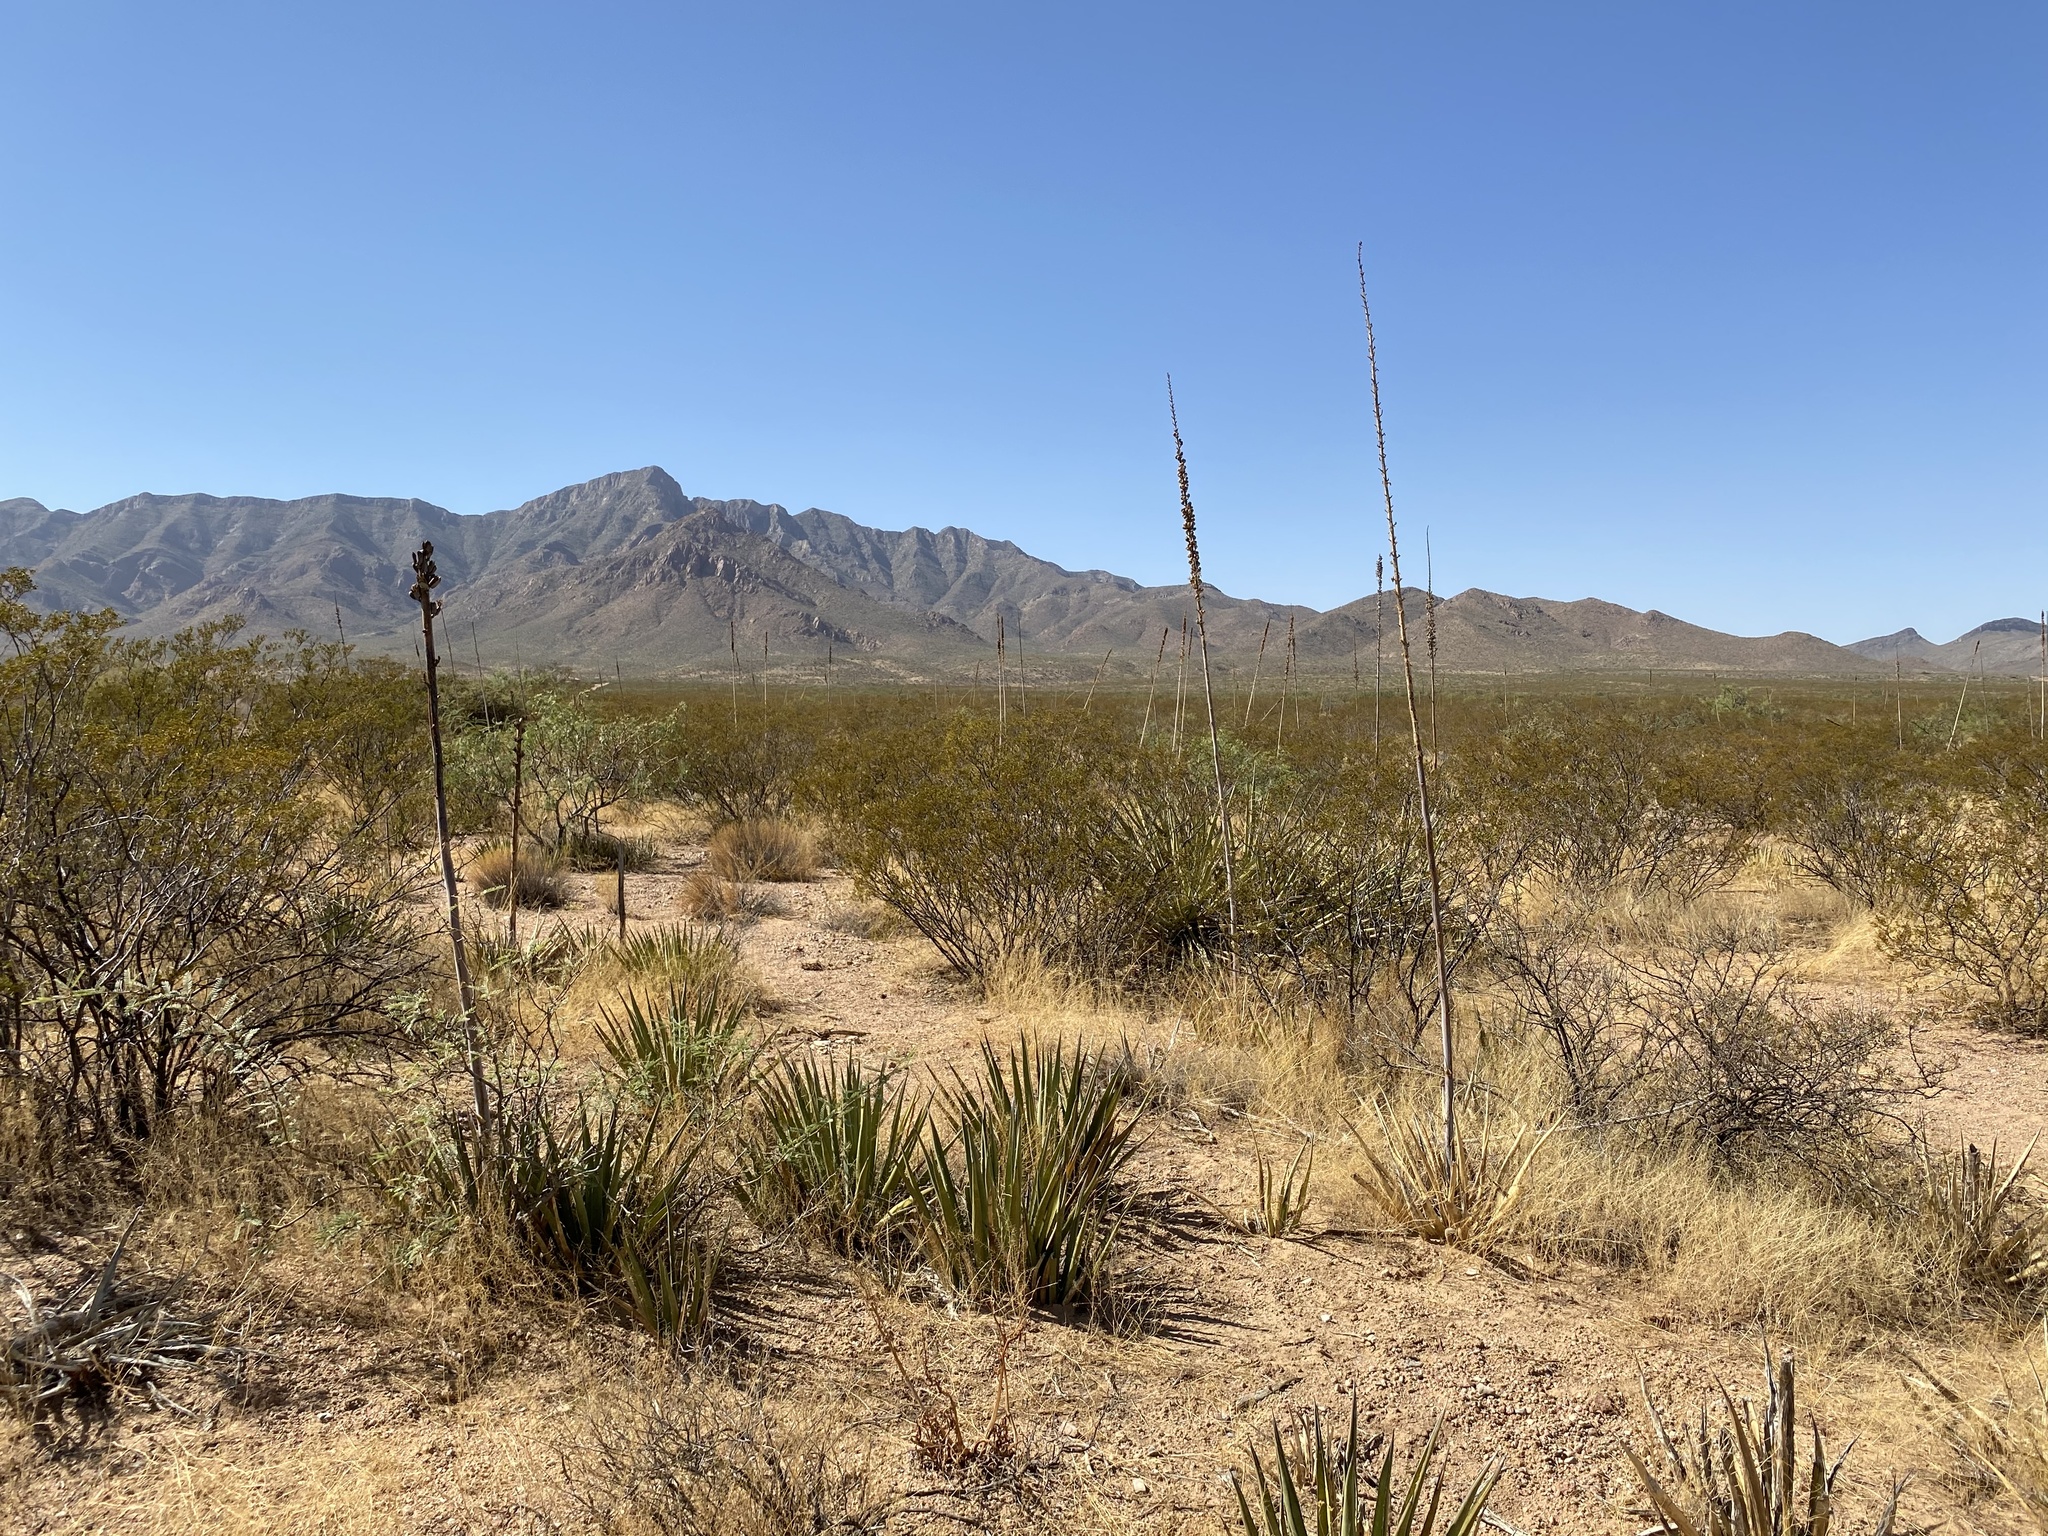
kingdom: Plantae
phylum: Tracheophyta
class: Liliopsida
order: Asparagales
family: Asparagaceae
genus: Agave
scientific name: Agave lechuguilla
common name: Lecheguilla agave
